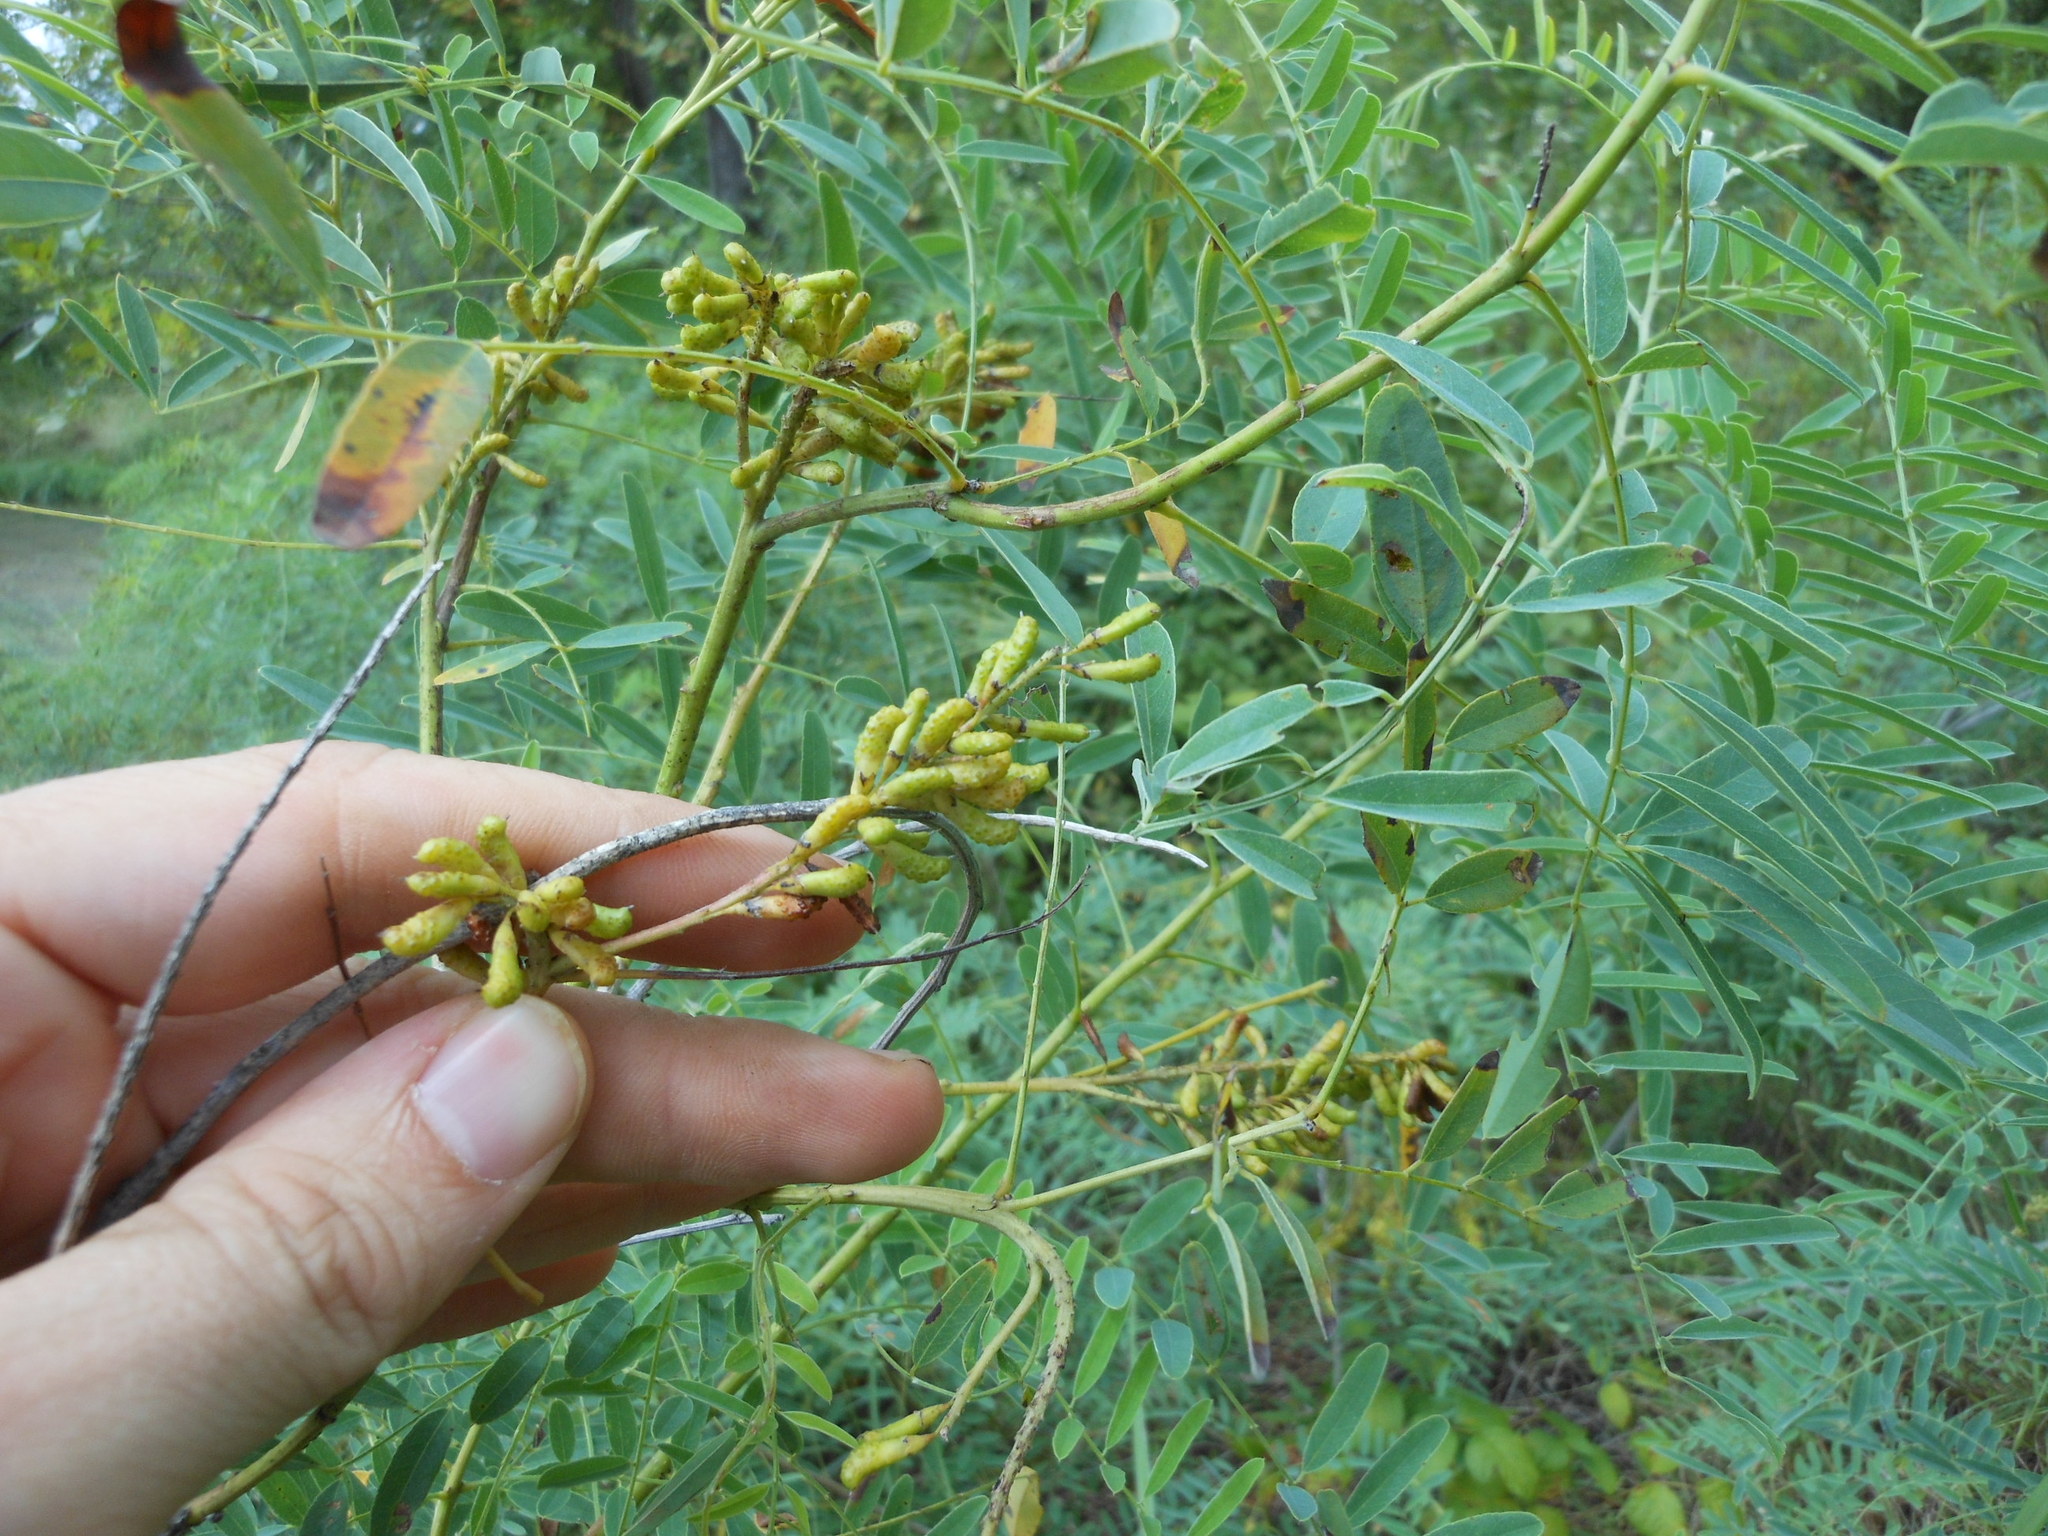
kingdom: Plantae
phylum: Tracheophyta
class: Magnoliopsida
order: Fabales
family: Fabaceae
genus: Amorpha
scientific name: Amorpha fruticosa
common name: False indigo
